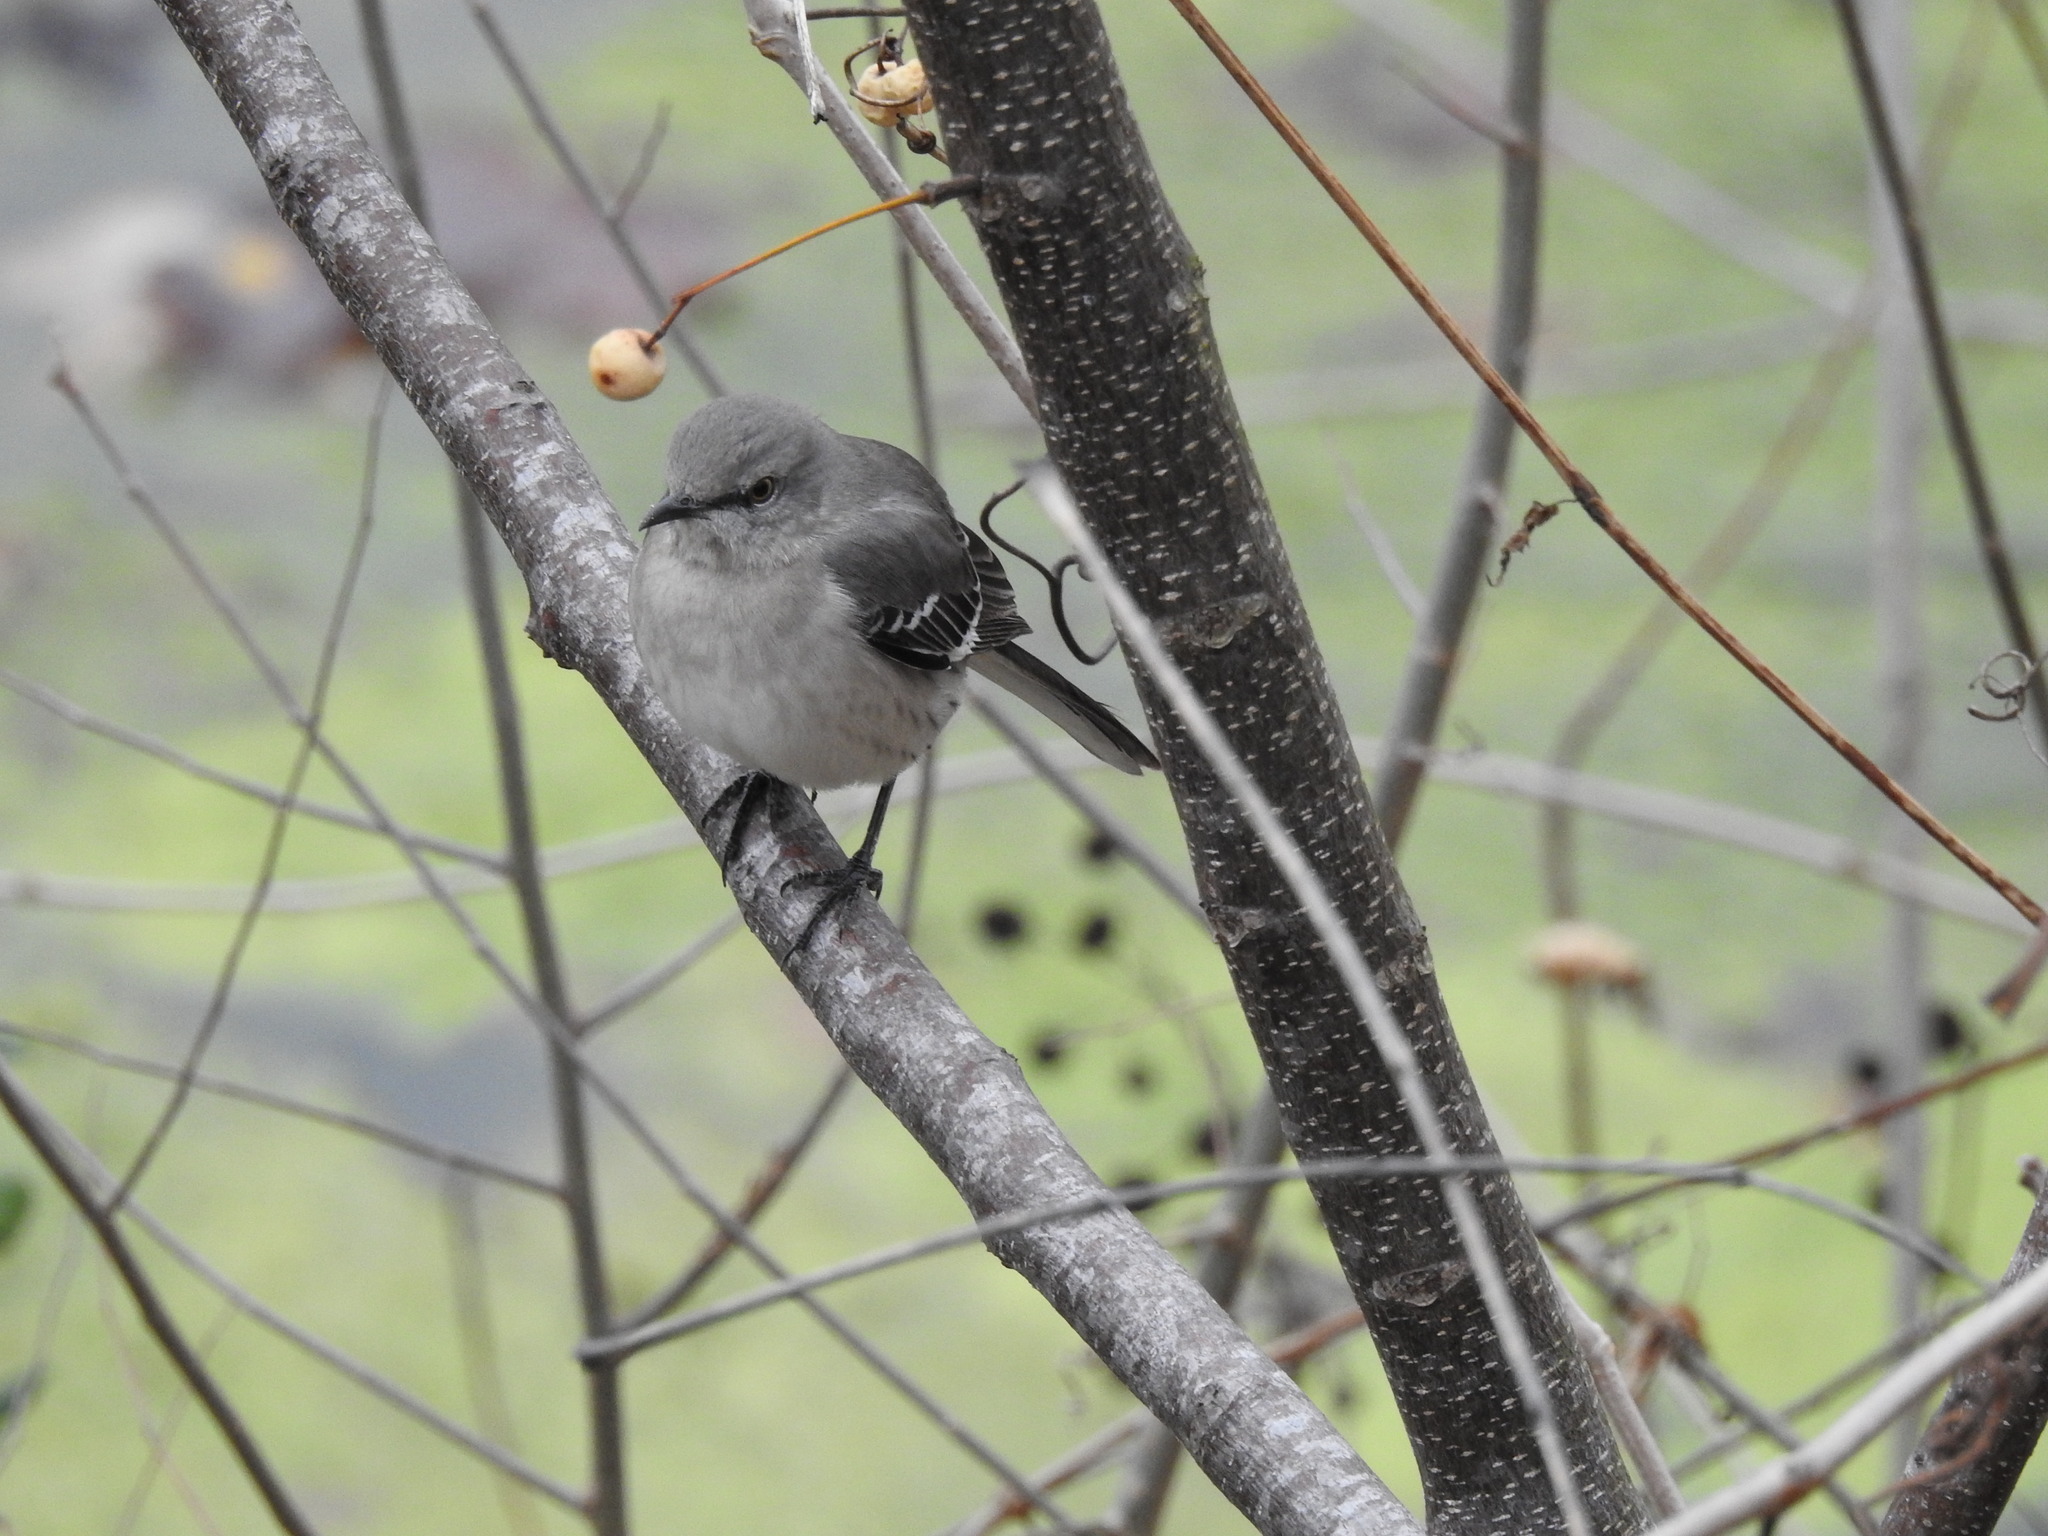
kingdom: Animalia
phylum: Chordata
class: Aves
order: Passeriformes
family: Mimidae
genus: Mimus
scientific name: Mimus polyglottos
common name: Northern mockingbird
